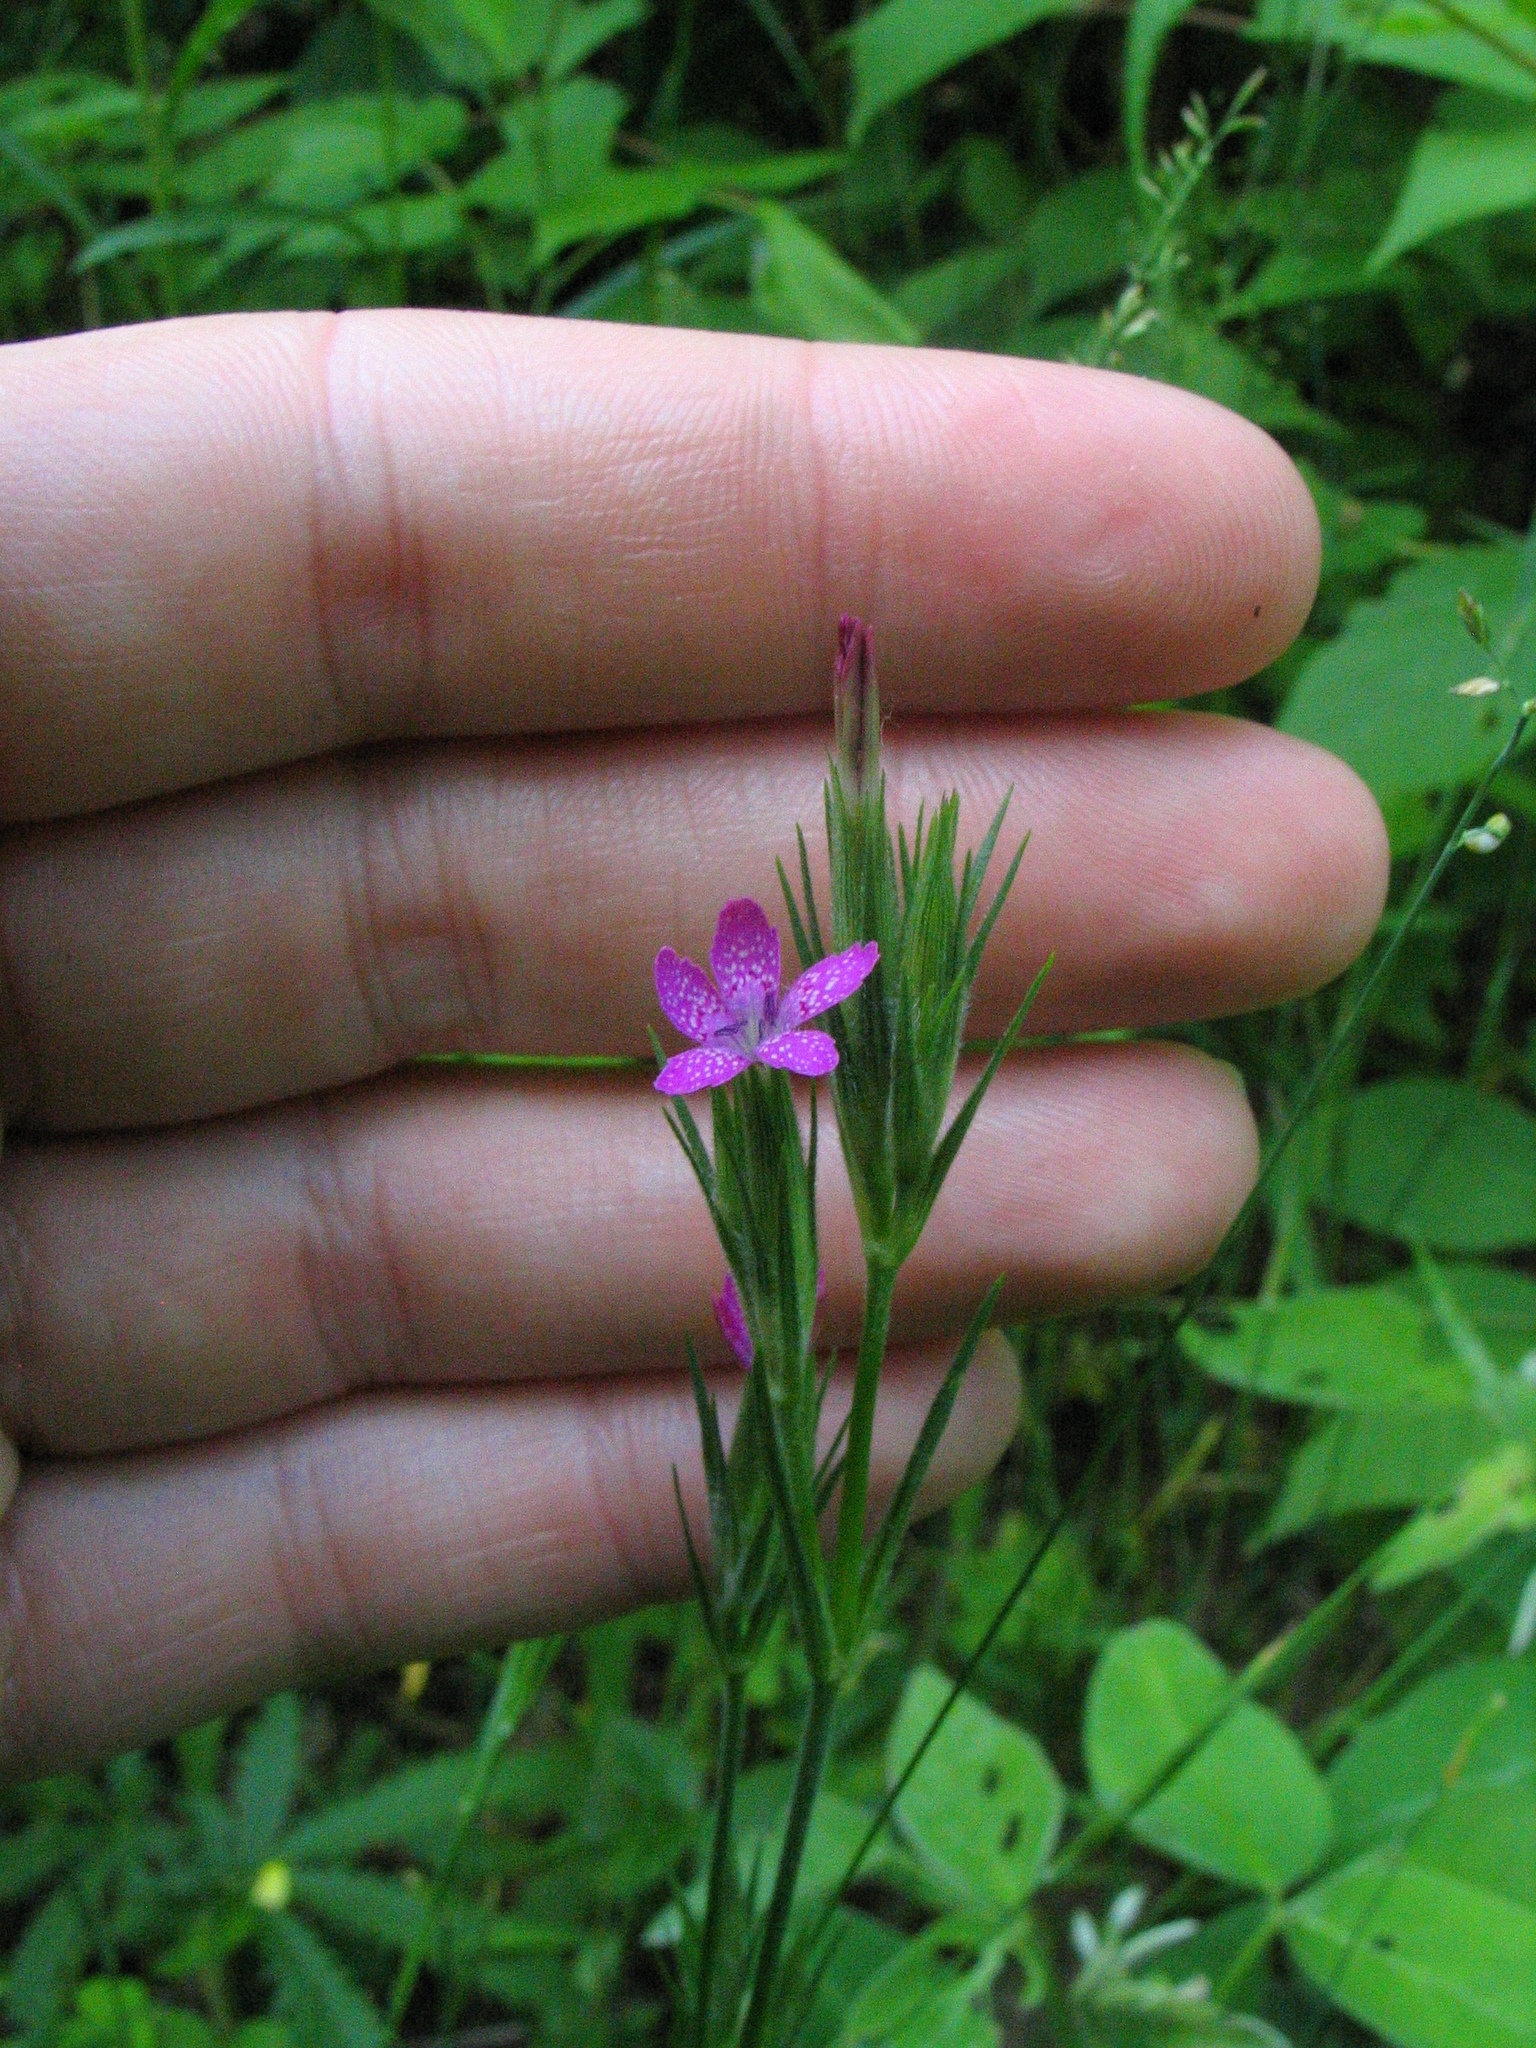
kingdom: Plantae
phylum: Tracheophyta
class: Magnoliopsida
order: Caryophyllales
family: Caryophyllaceae
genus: Dianthus
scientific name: Dianthus armeria
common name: Deptford pink
